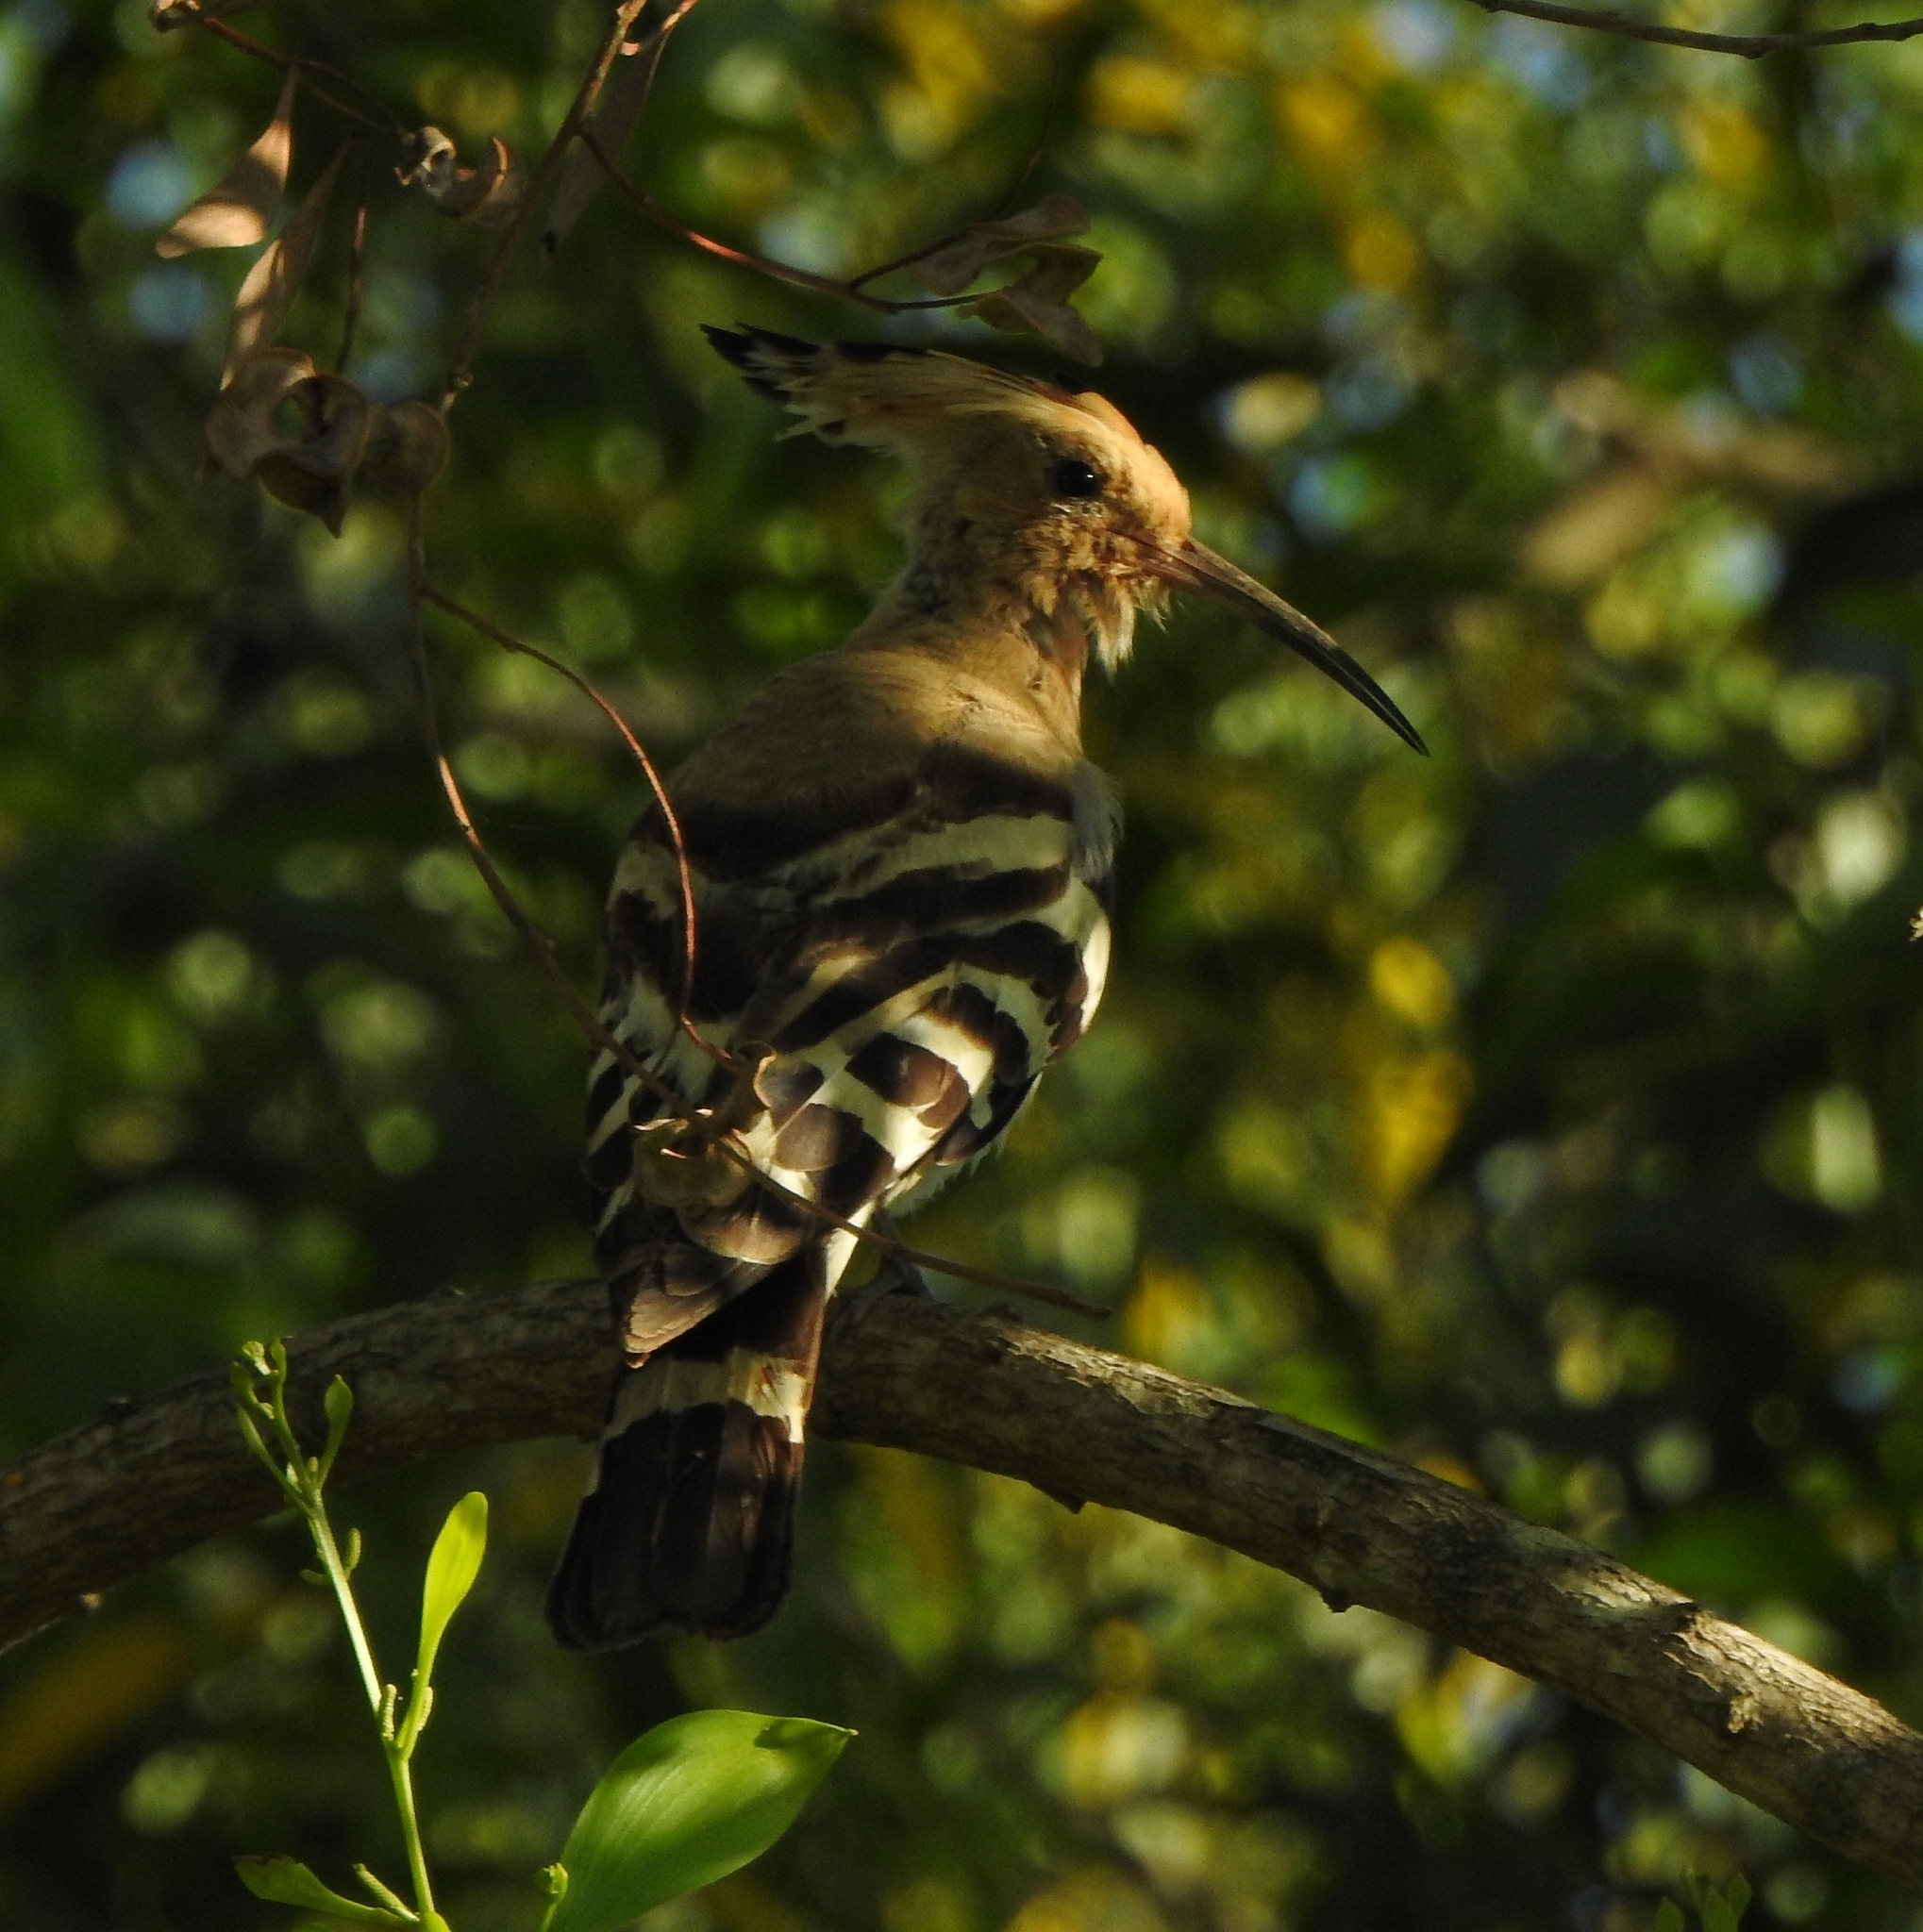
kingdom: Animalia
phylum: Chordata
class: Aves
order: Bucerotiformes
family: Upupidae
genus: Upupa
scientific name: Upupa epops
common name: Eurasian hoopoe
